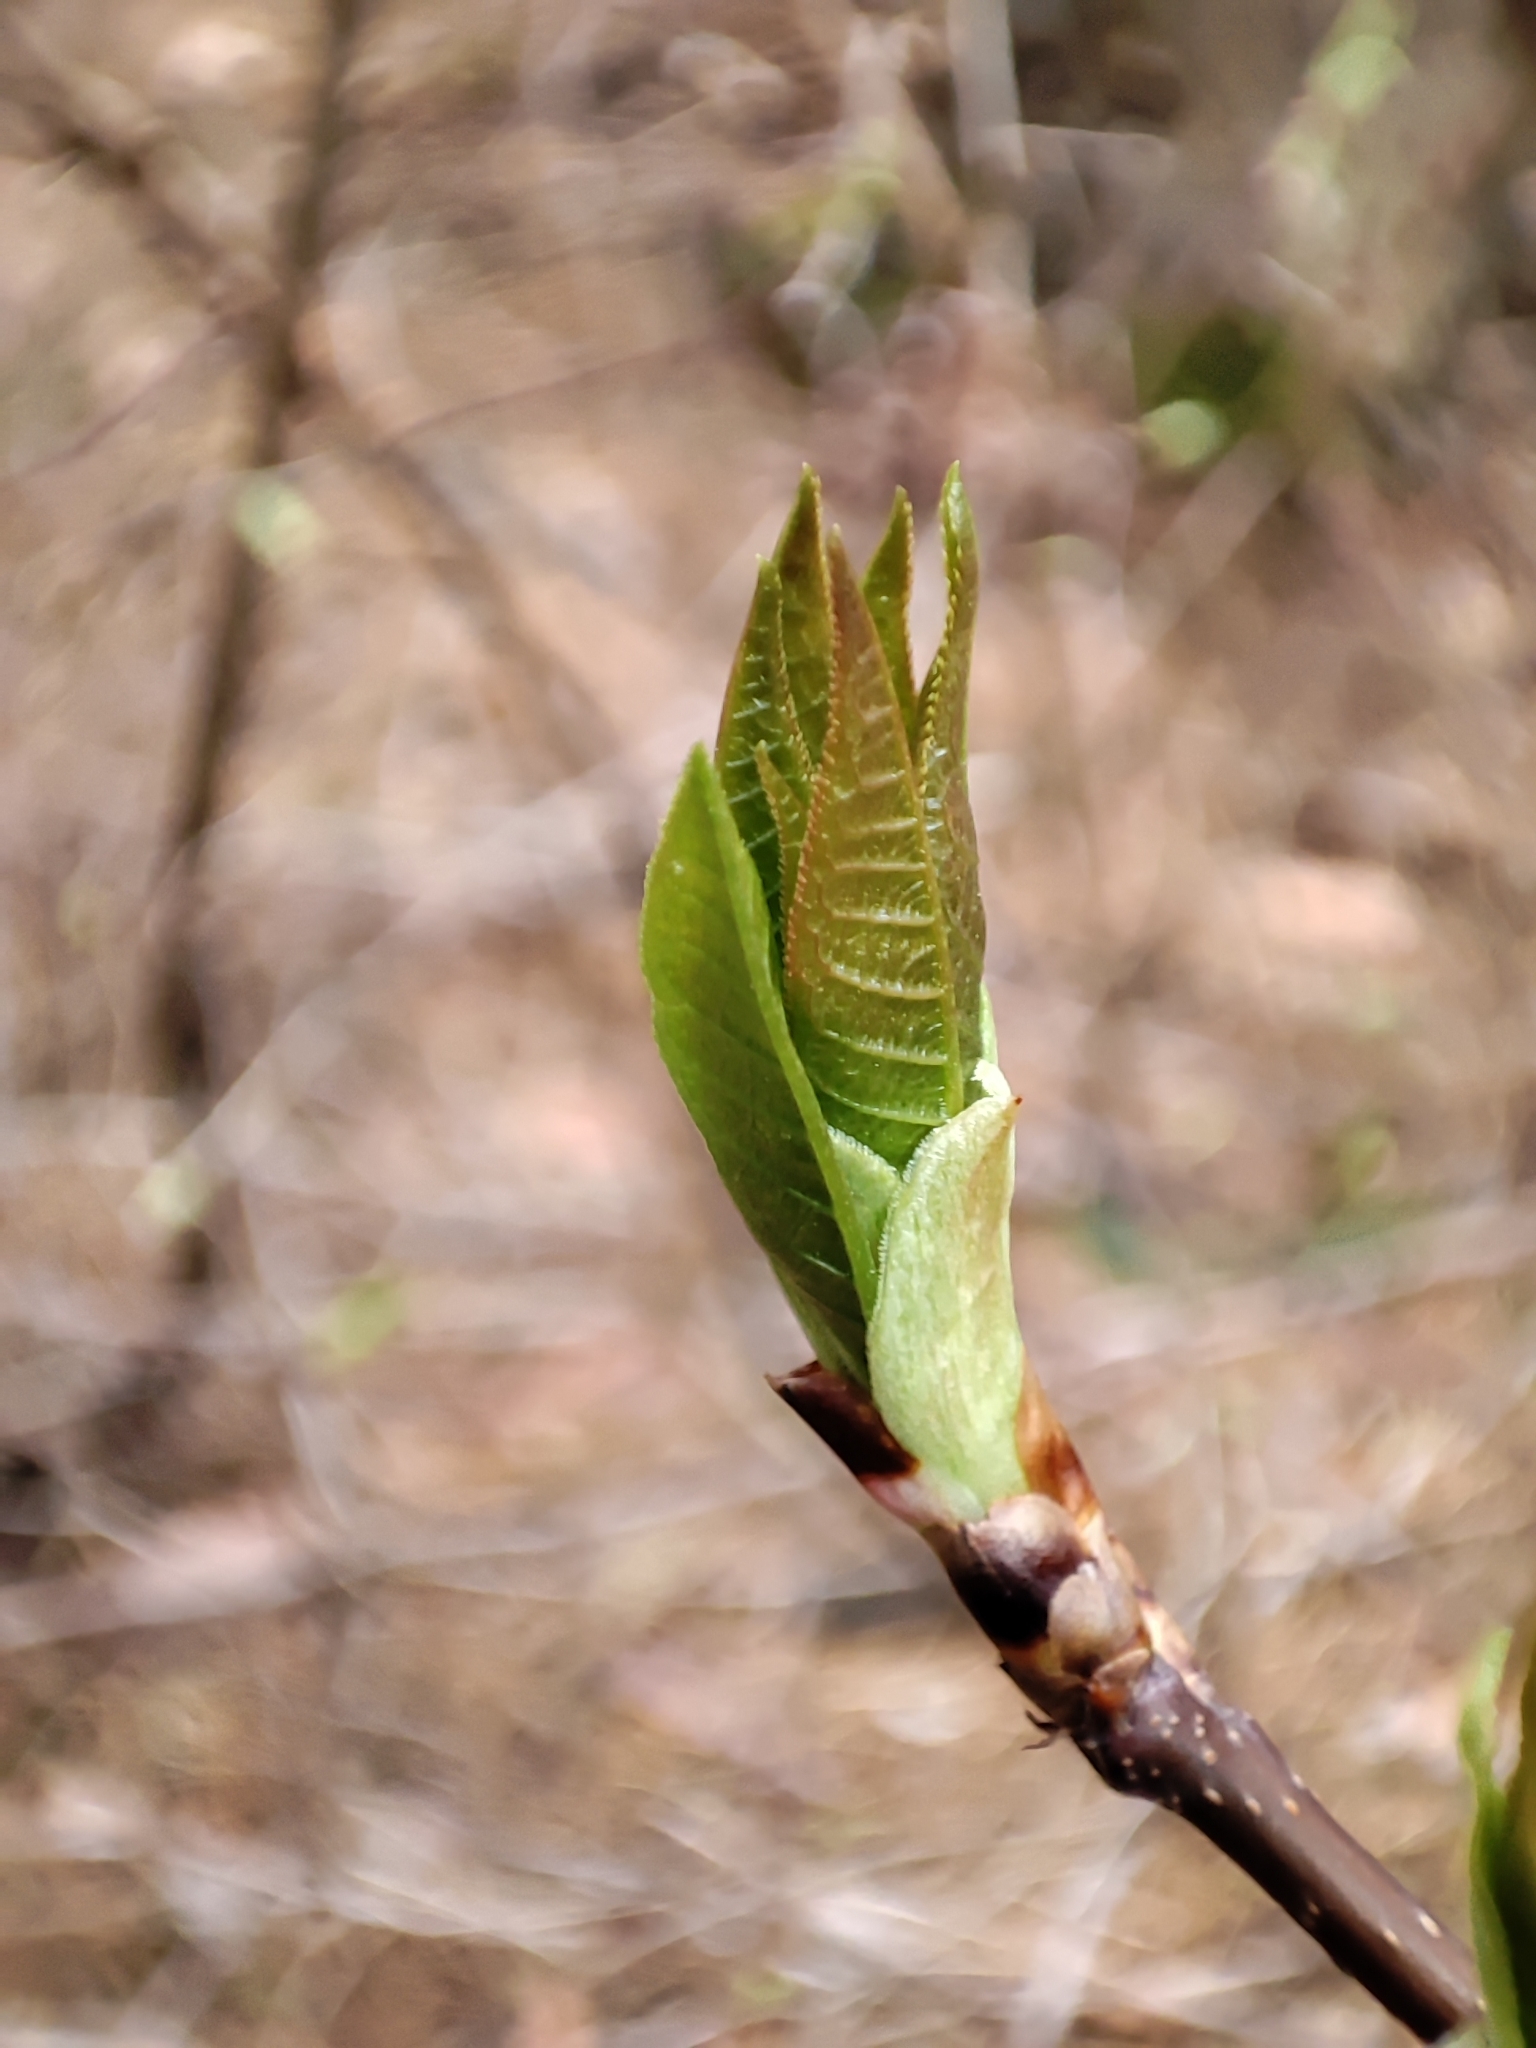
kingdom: Plantae
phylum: Tracheophyta
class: Magnoliopsida
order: Rosales
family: Rosaceae
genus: Prunus
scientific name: Prunus padus
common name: Bird cherry
